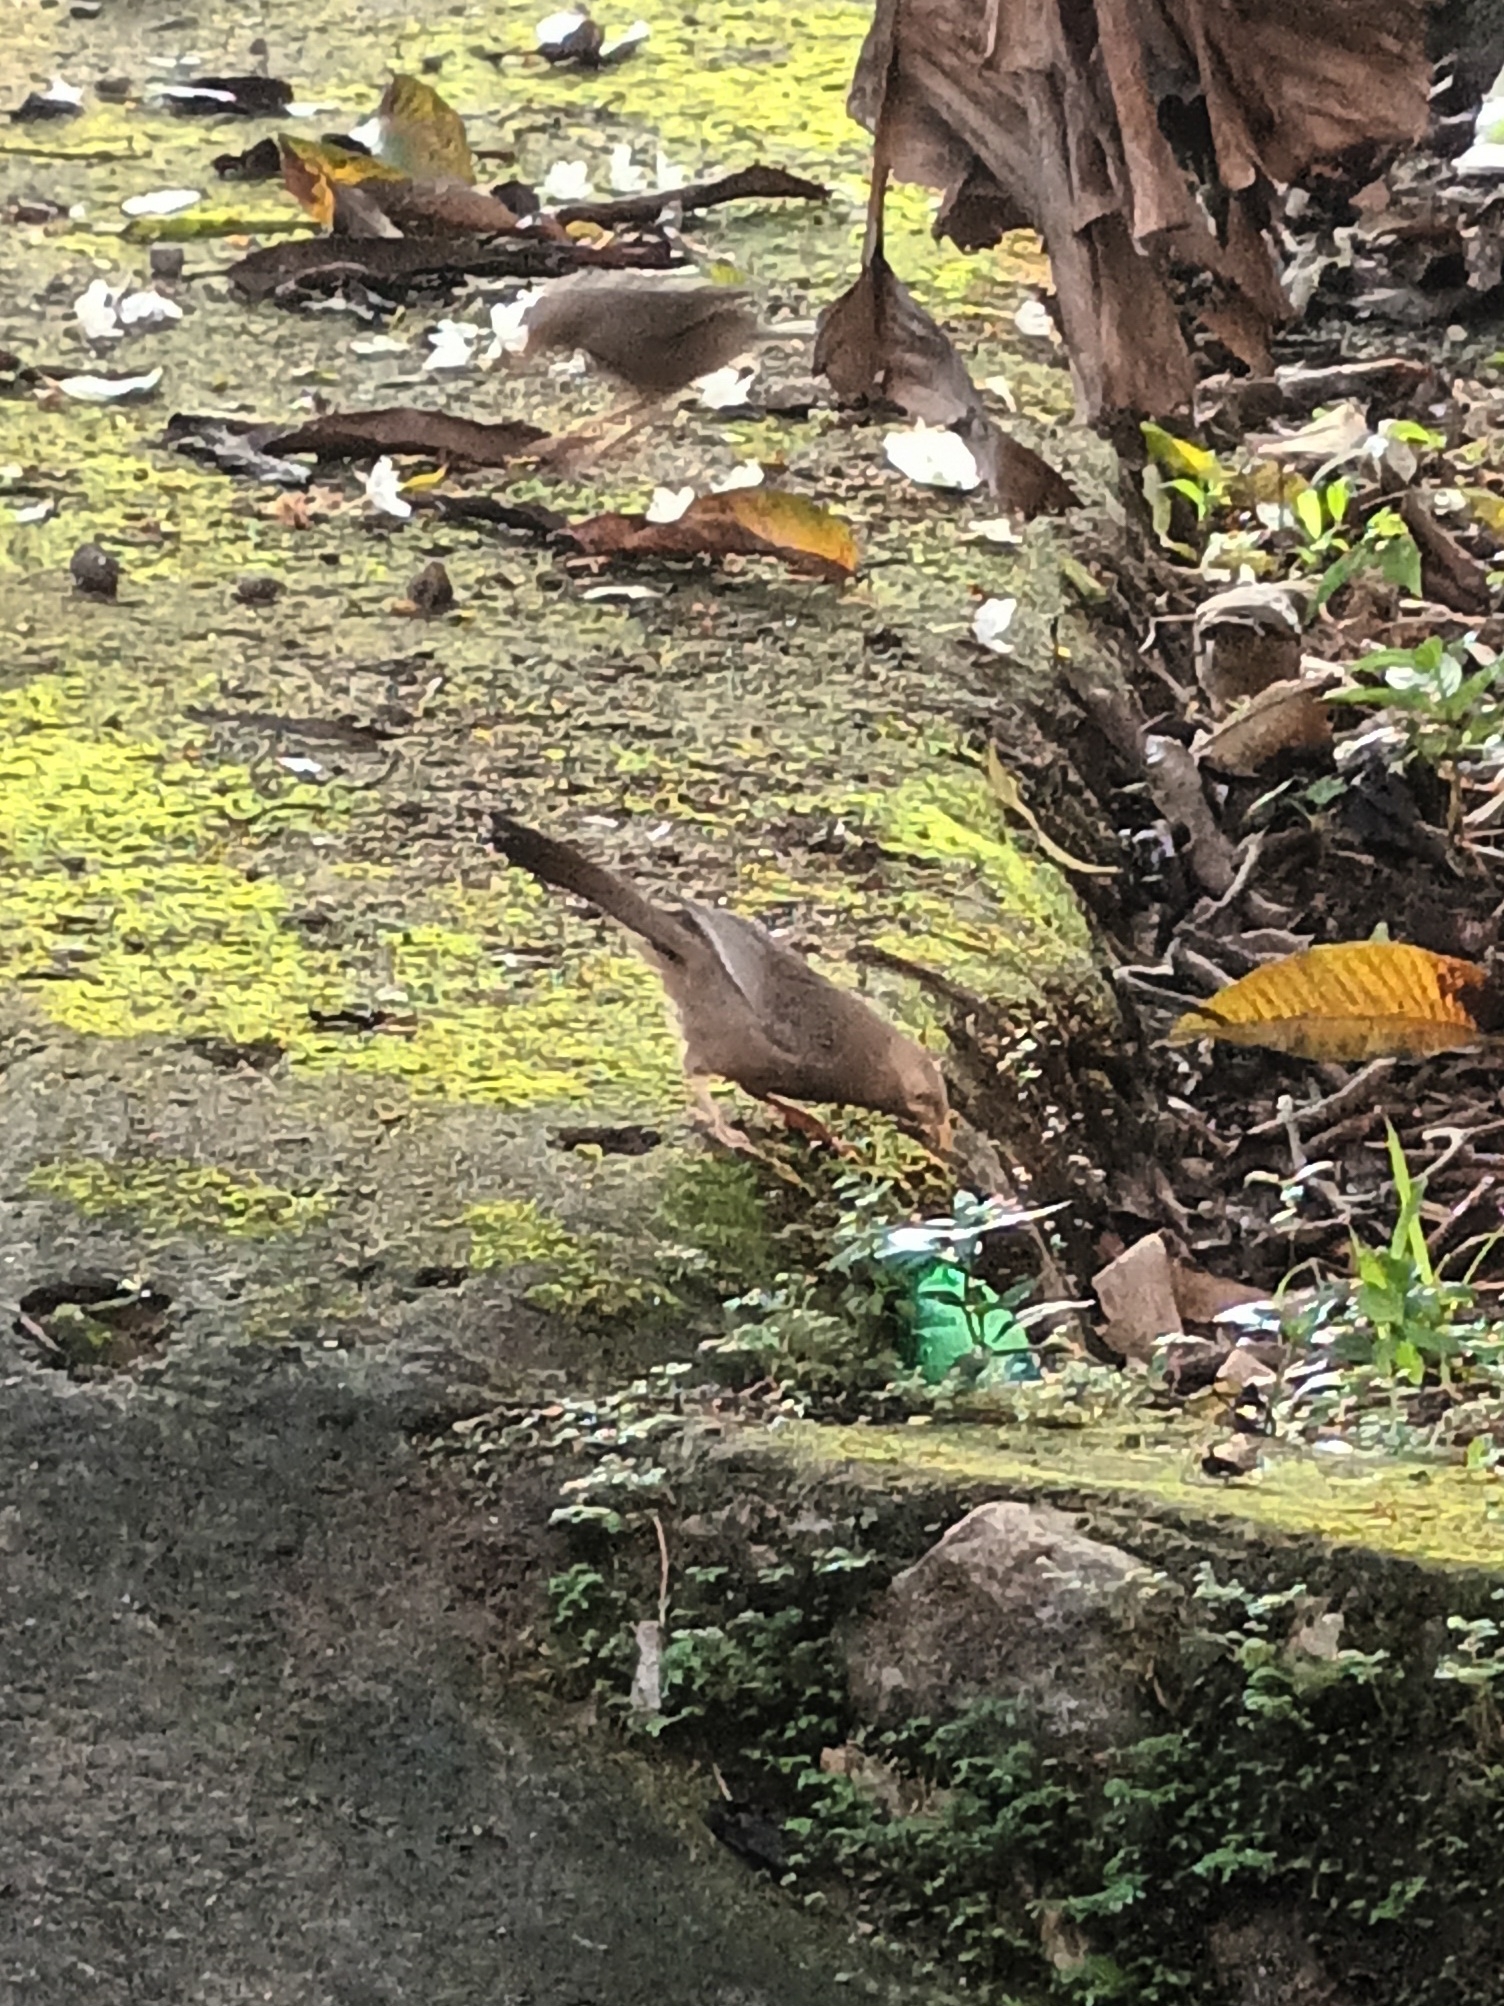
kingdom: Animalia
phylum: Chordata
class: Aves
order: Passeriformes
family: Leiothrichidae
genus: Turdoides
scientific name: Turdoides affinis
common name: Yellow-billed babbler
